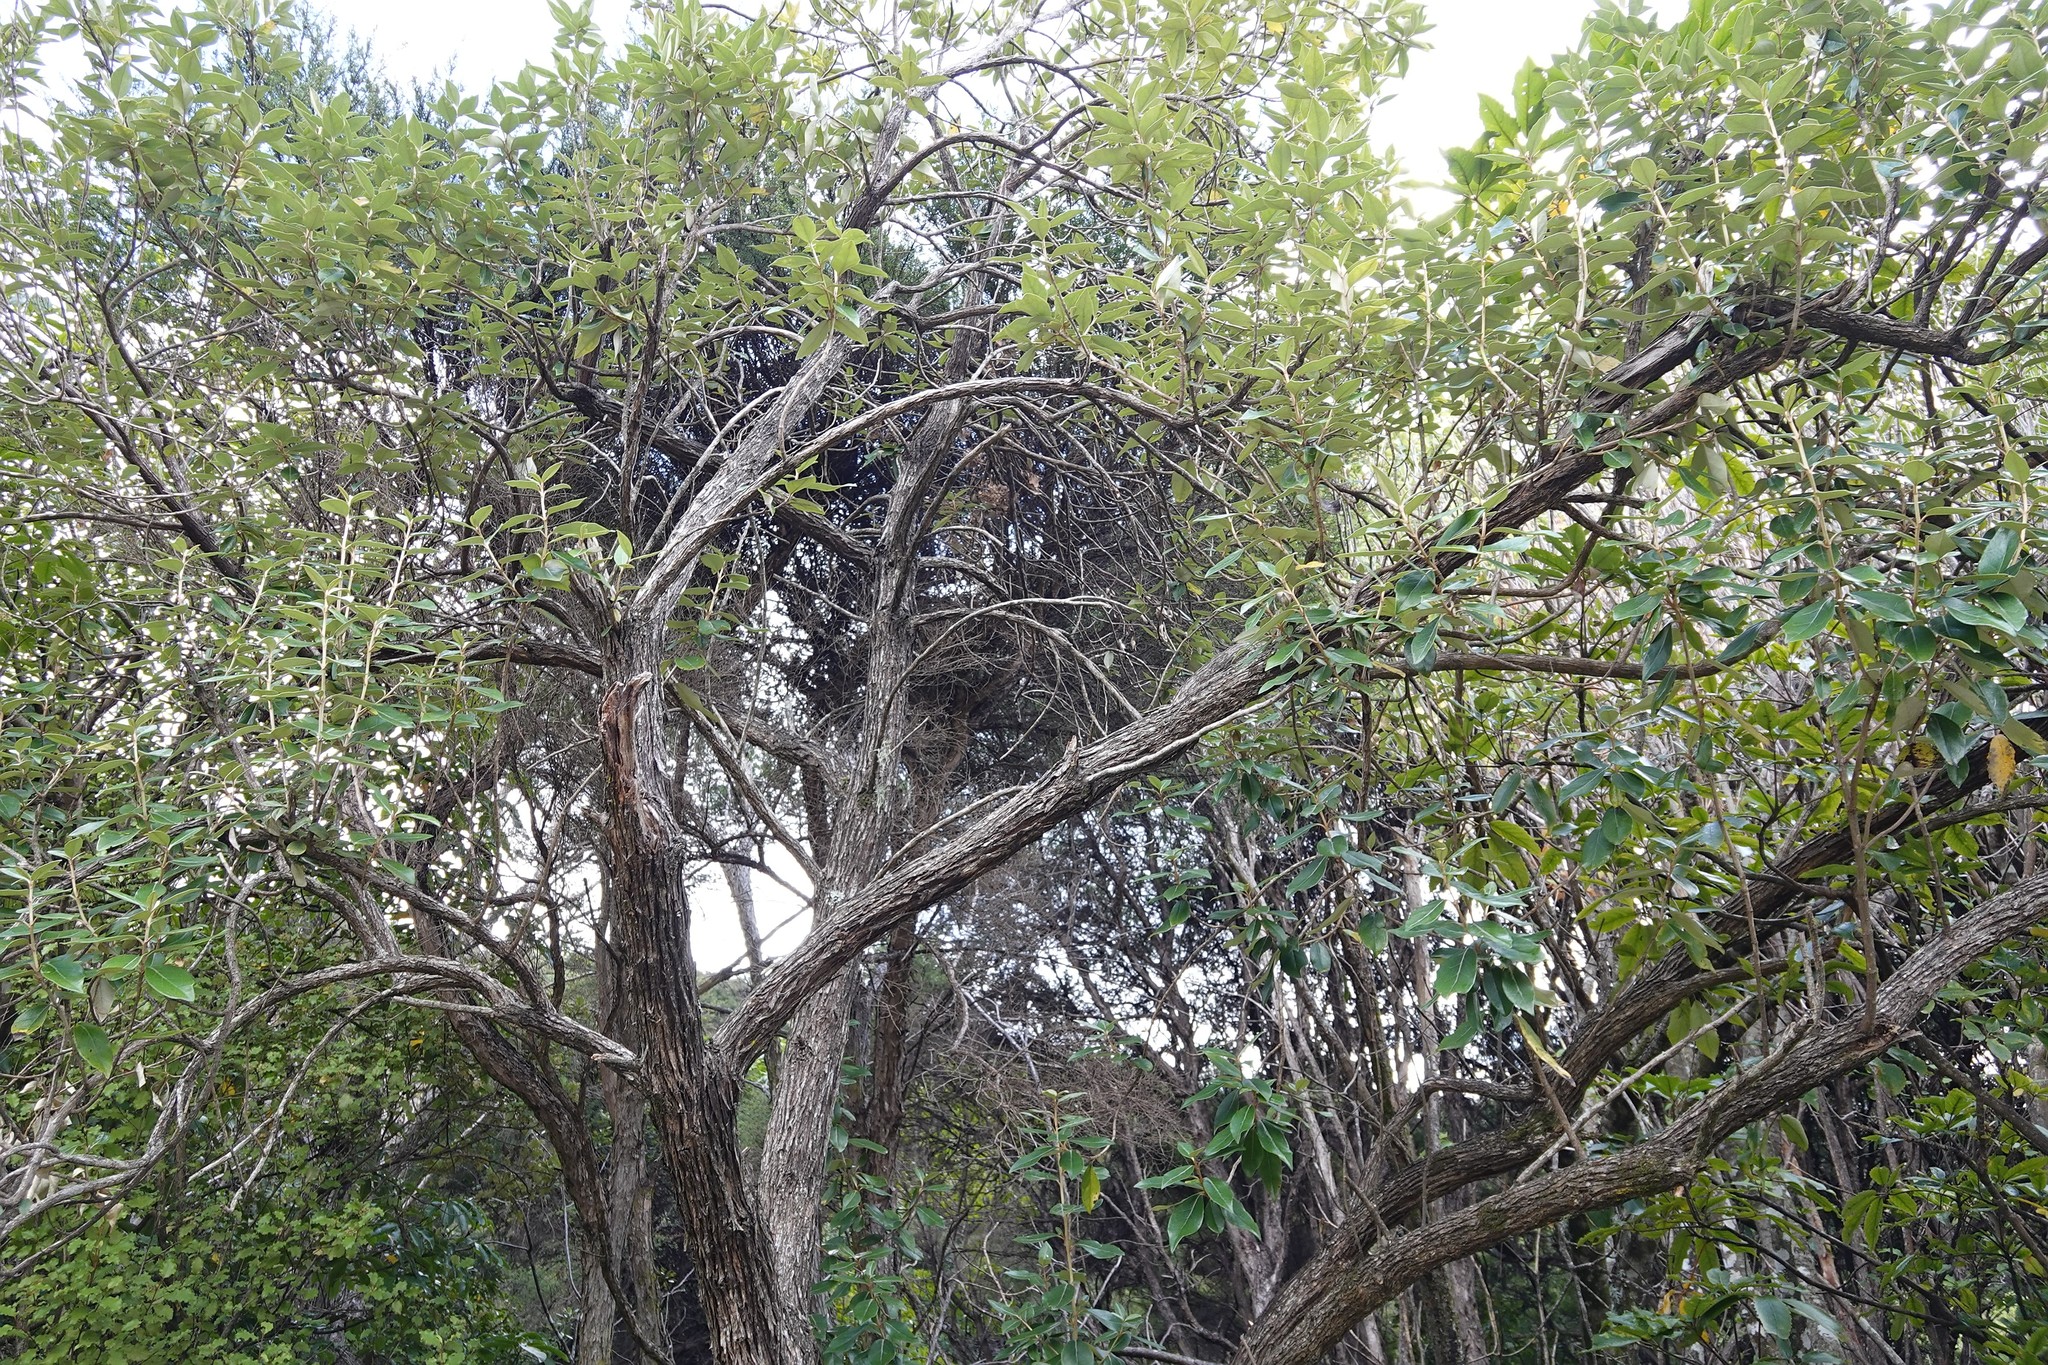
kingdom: Plantae
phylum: Tracheophyta
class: Magnoliopsida
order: Asterales
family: Asteraceae
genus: Olearia
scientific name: Olearia avicenniifolia
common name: Mangrove-leaf daisybush
